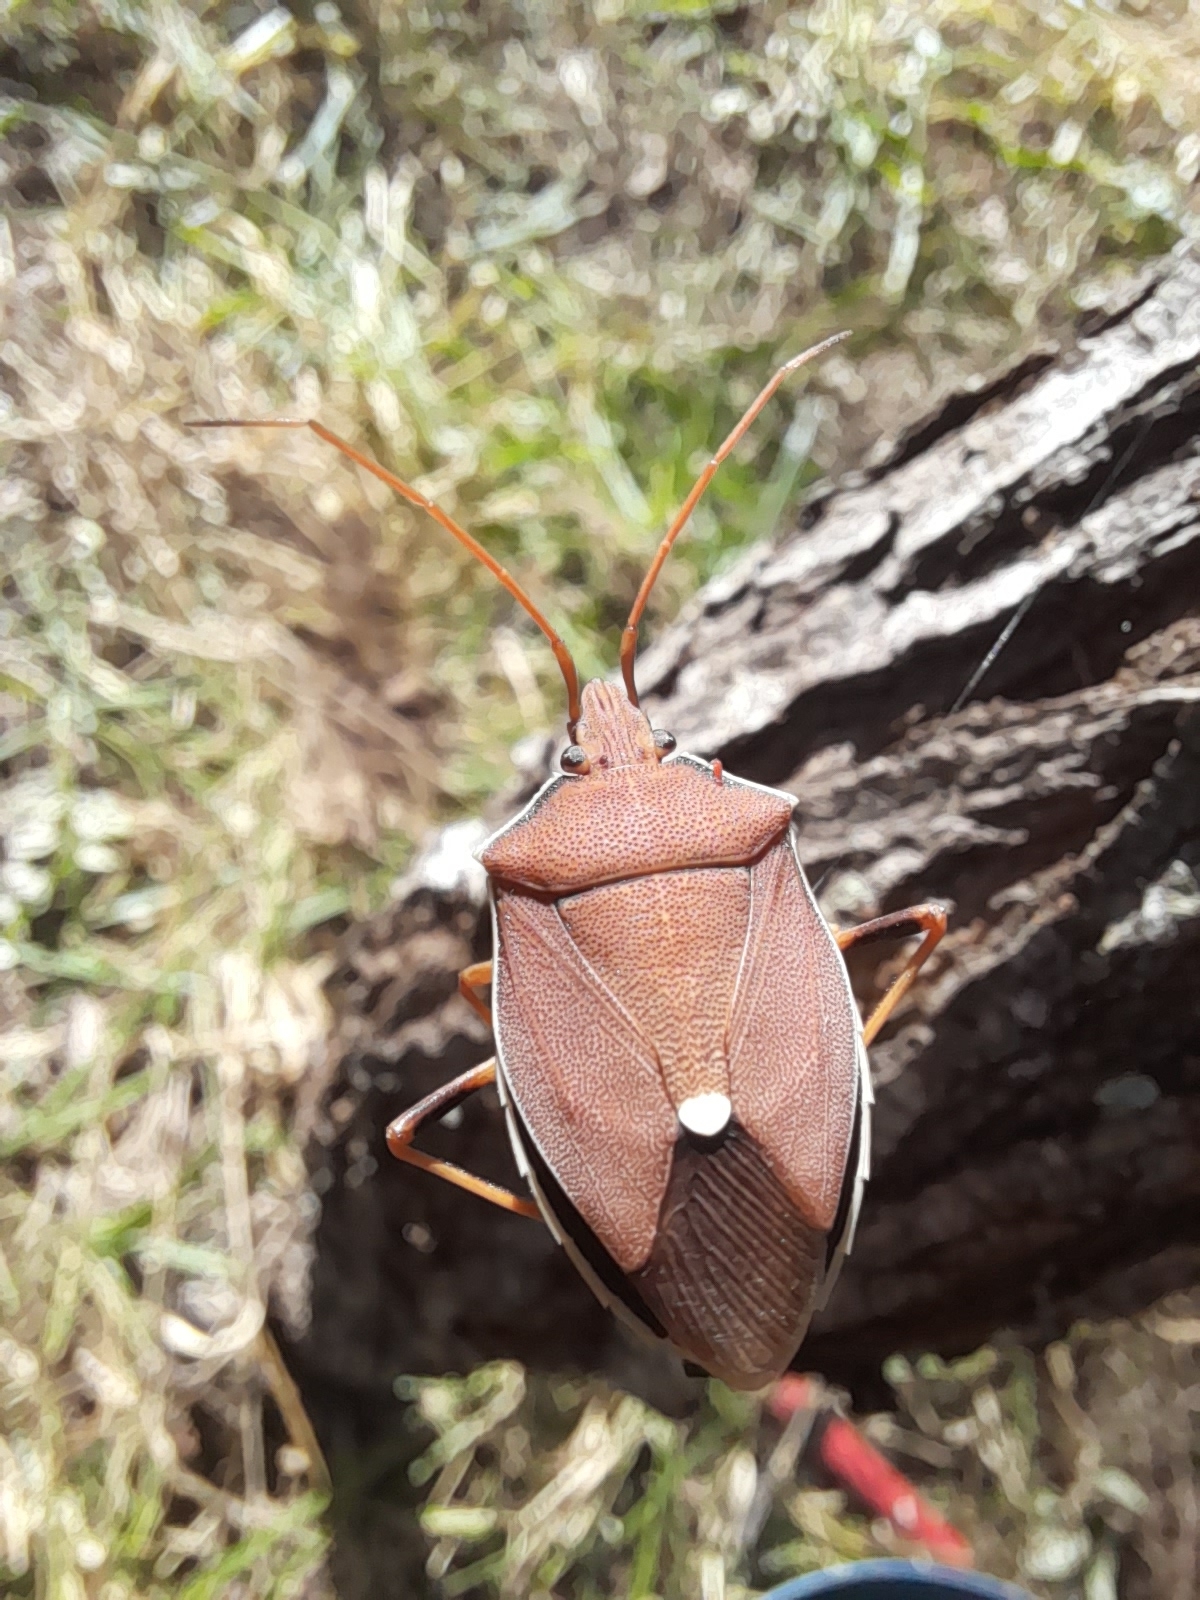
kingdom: Animalia
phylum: Arthropoda
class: Insecta
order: Hemiptera
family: Pentatomidae
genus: Poecilometis
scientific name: Poecilometis
